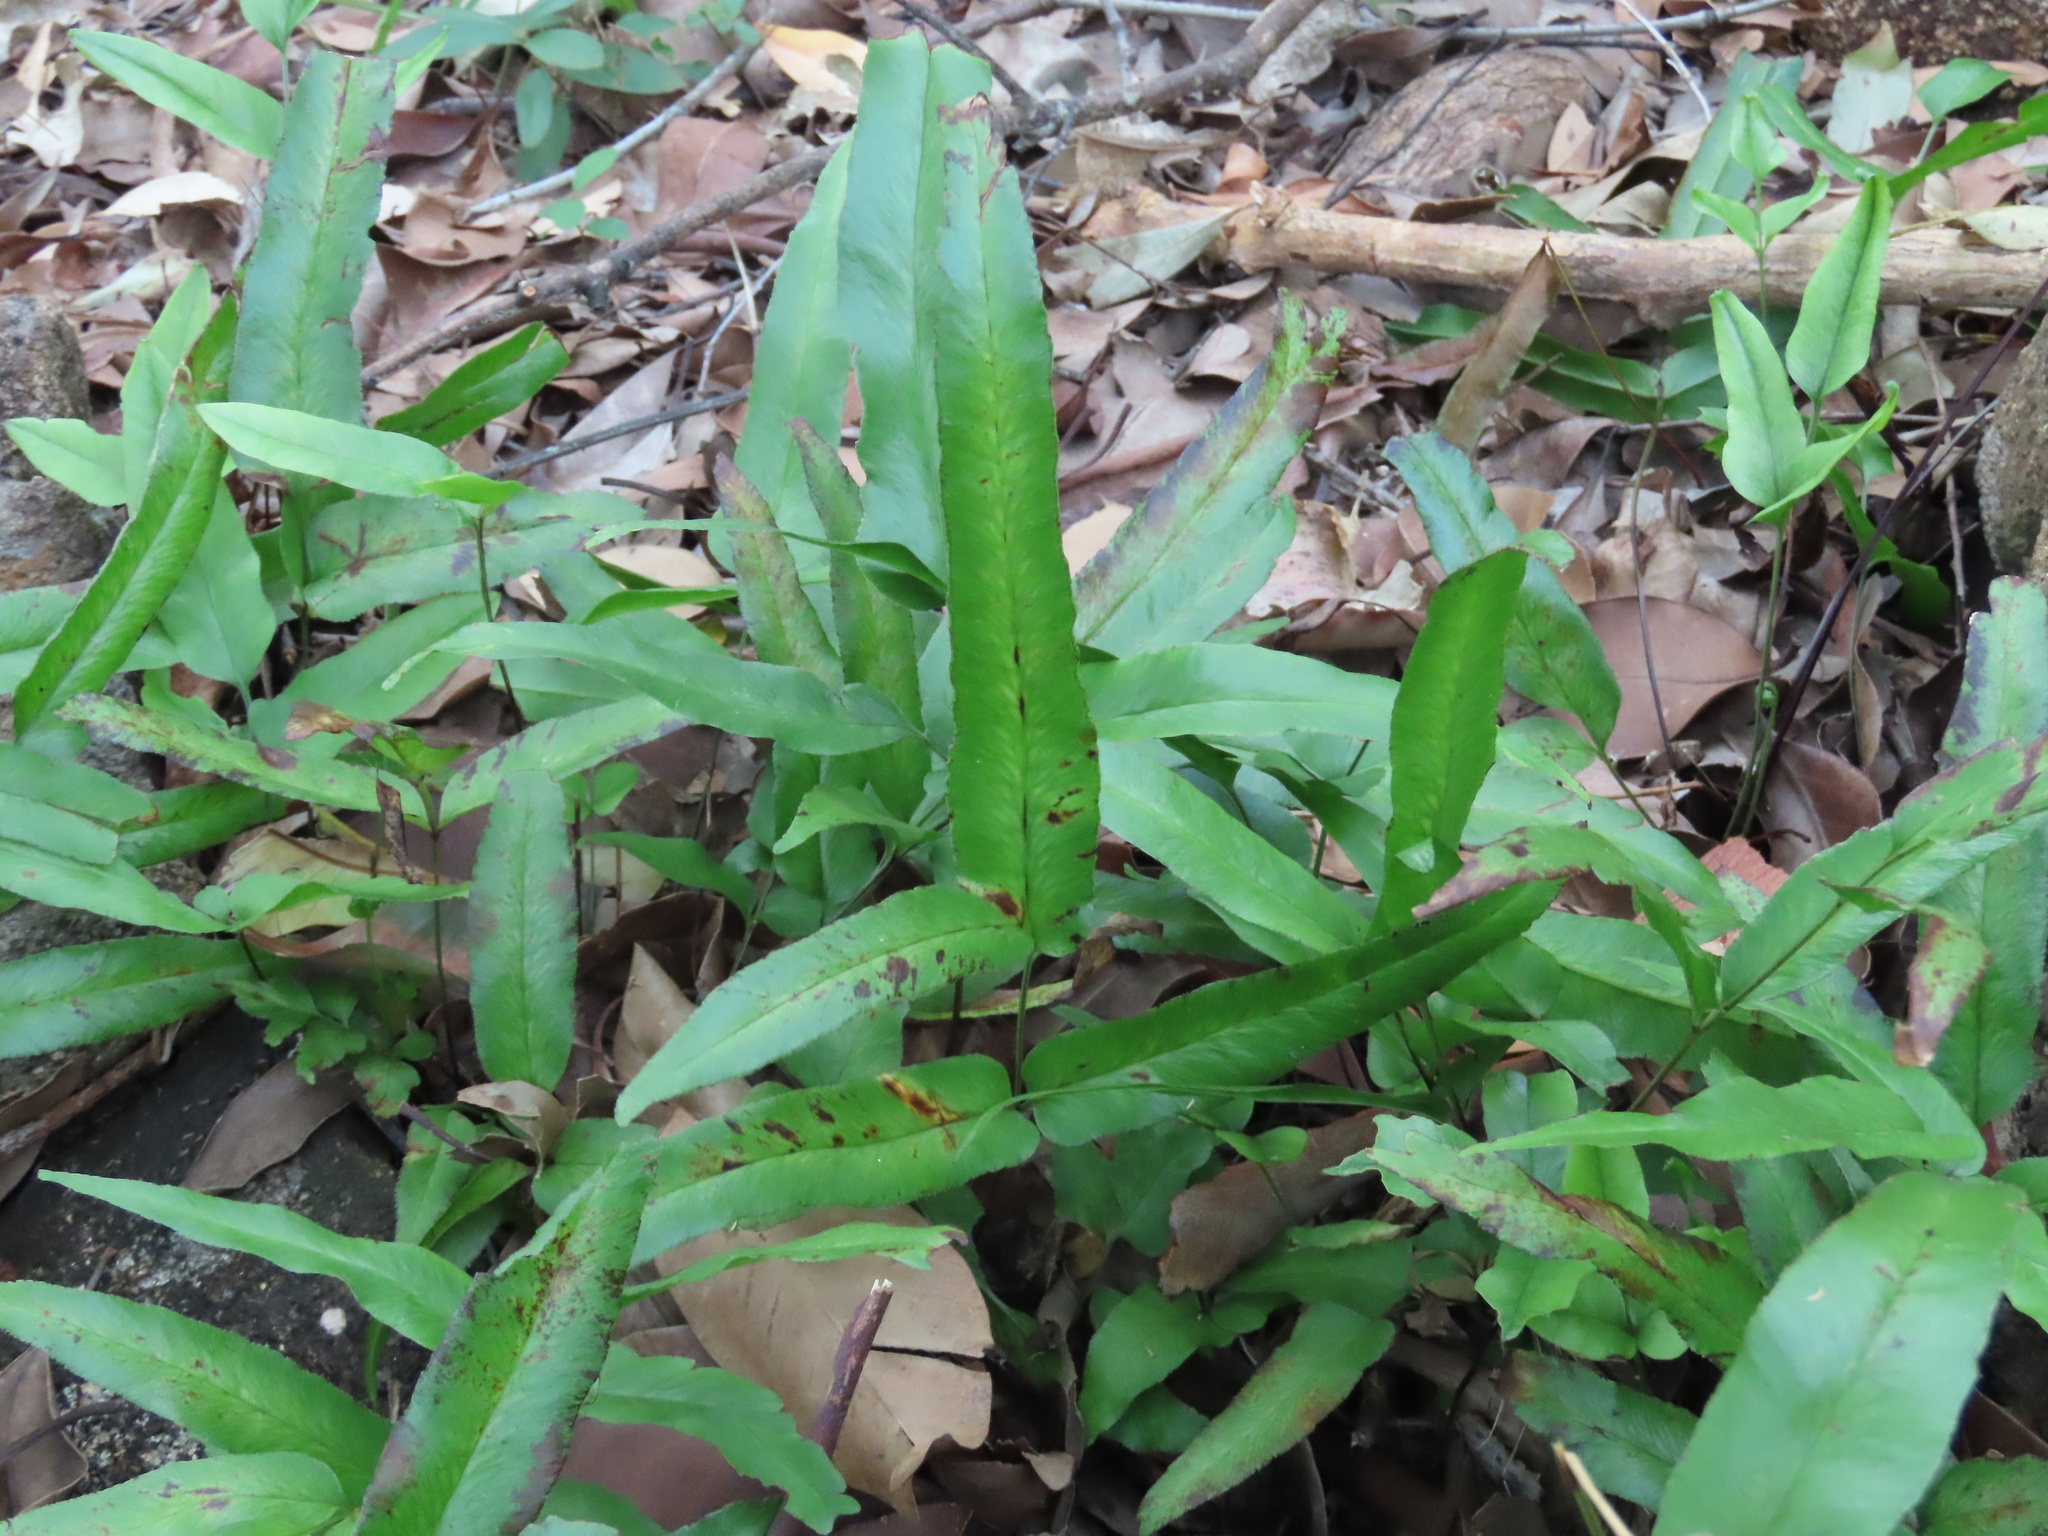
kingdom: Plantae
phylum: Tracheophyta
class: Polypodiopsida
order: Polypodiales
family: Lindsaeaceae
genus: Lindsaea
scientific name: Lindsaea ensifolia
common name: Graceful necklace fern
